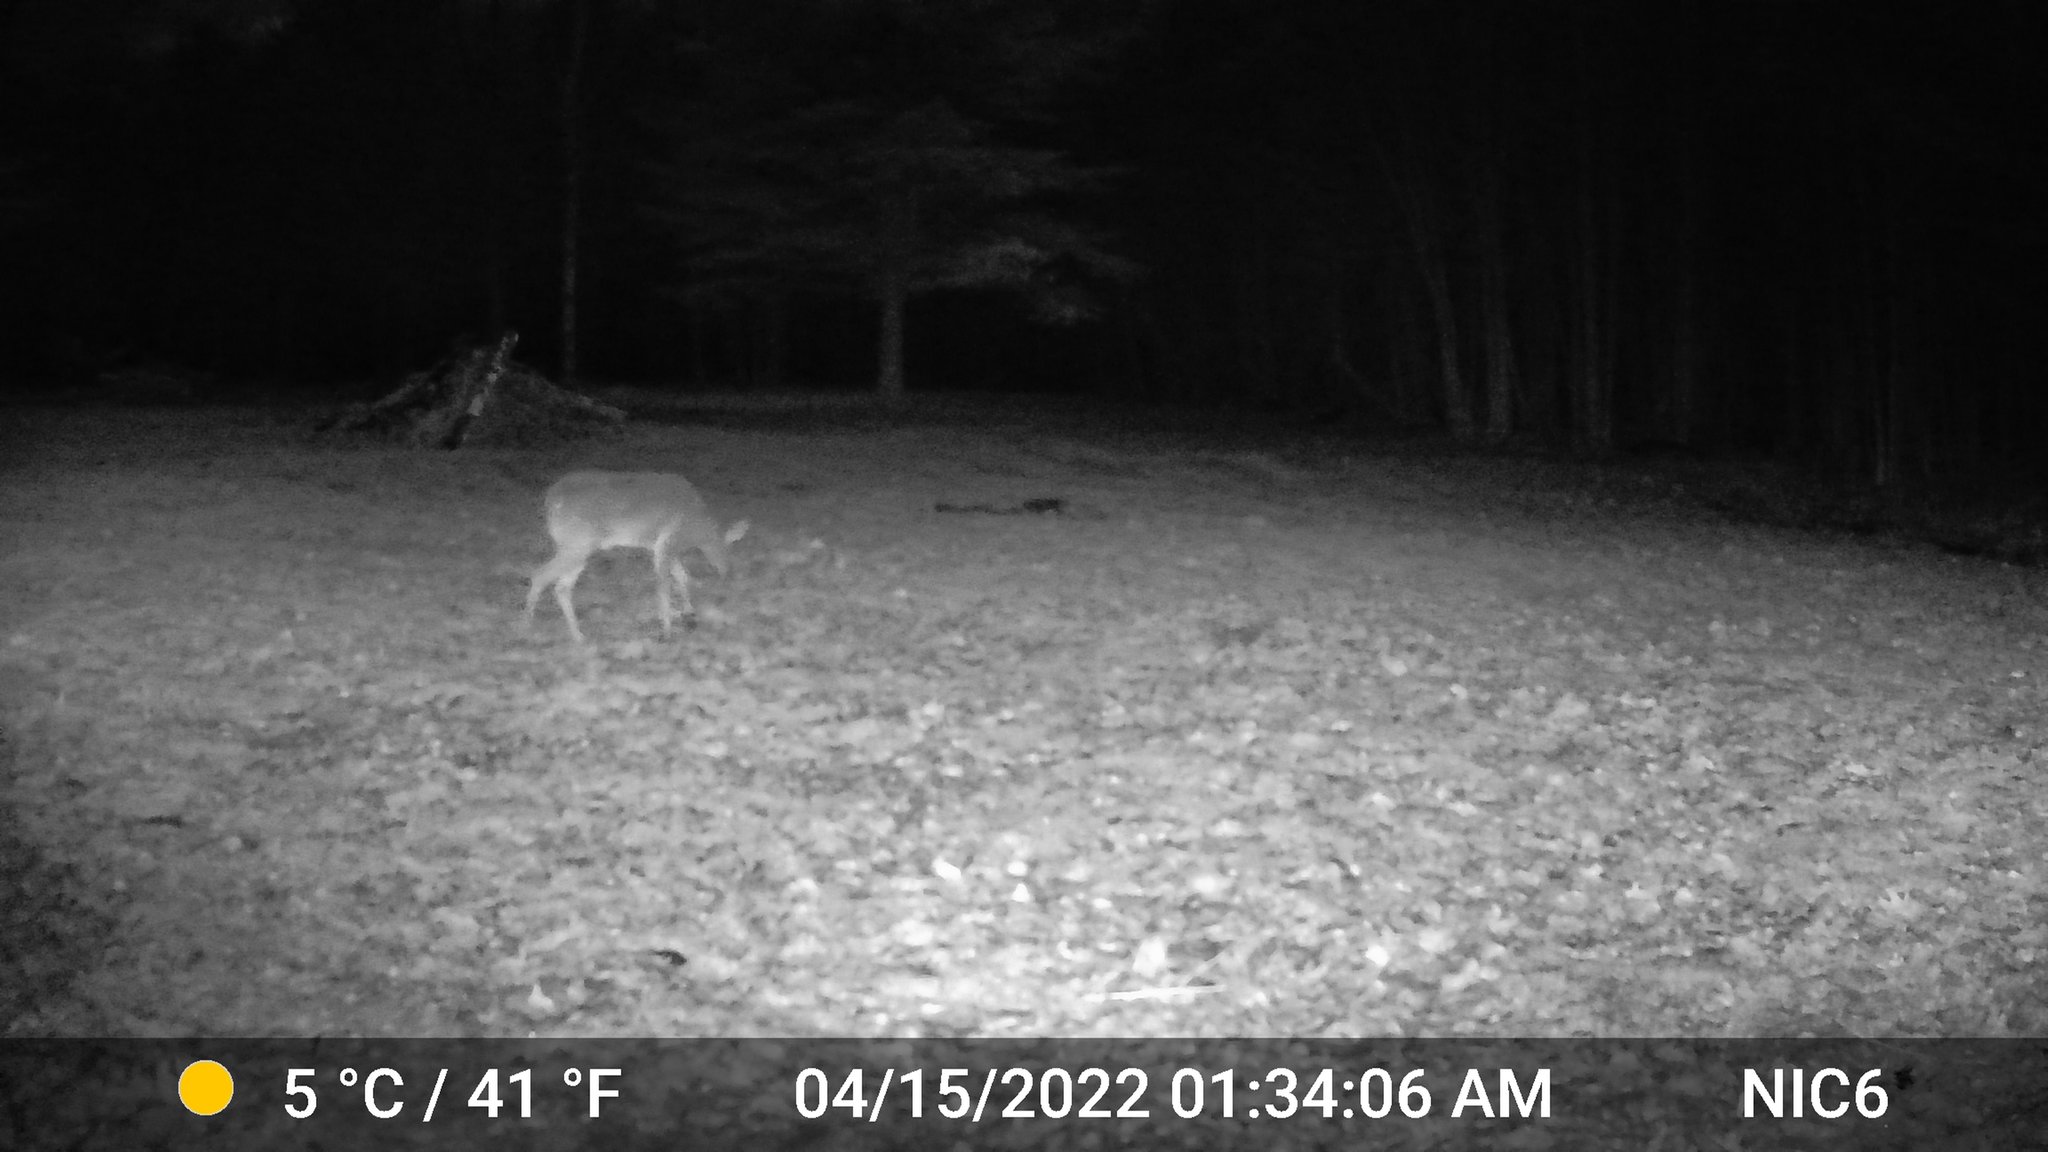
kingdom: Animalia
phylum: Chordata
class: Mammalia
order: Artiodactyla
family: Cervidae
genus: Odocoileus
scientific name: Odocoileus virginianus
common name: White-tailed deer
